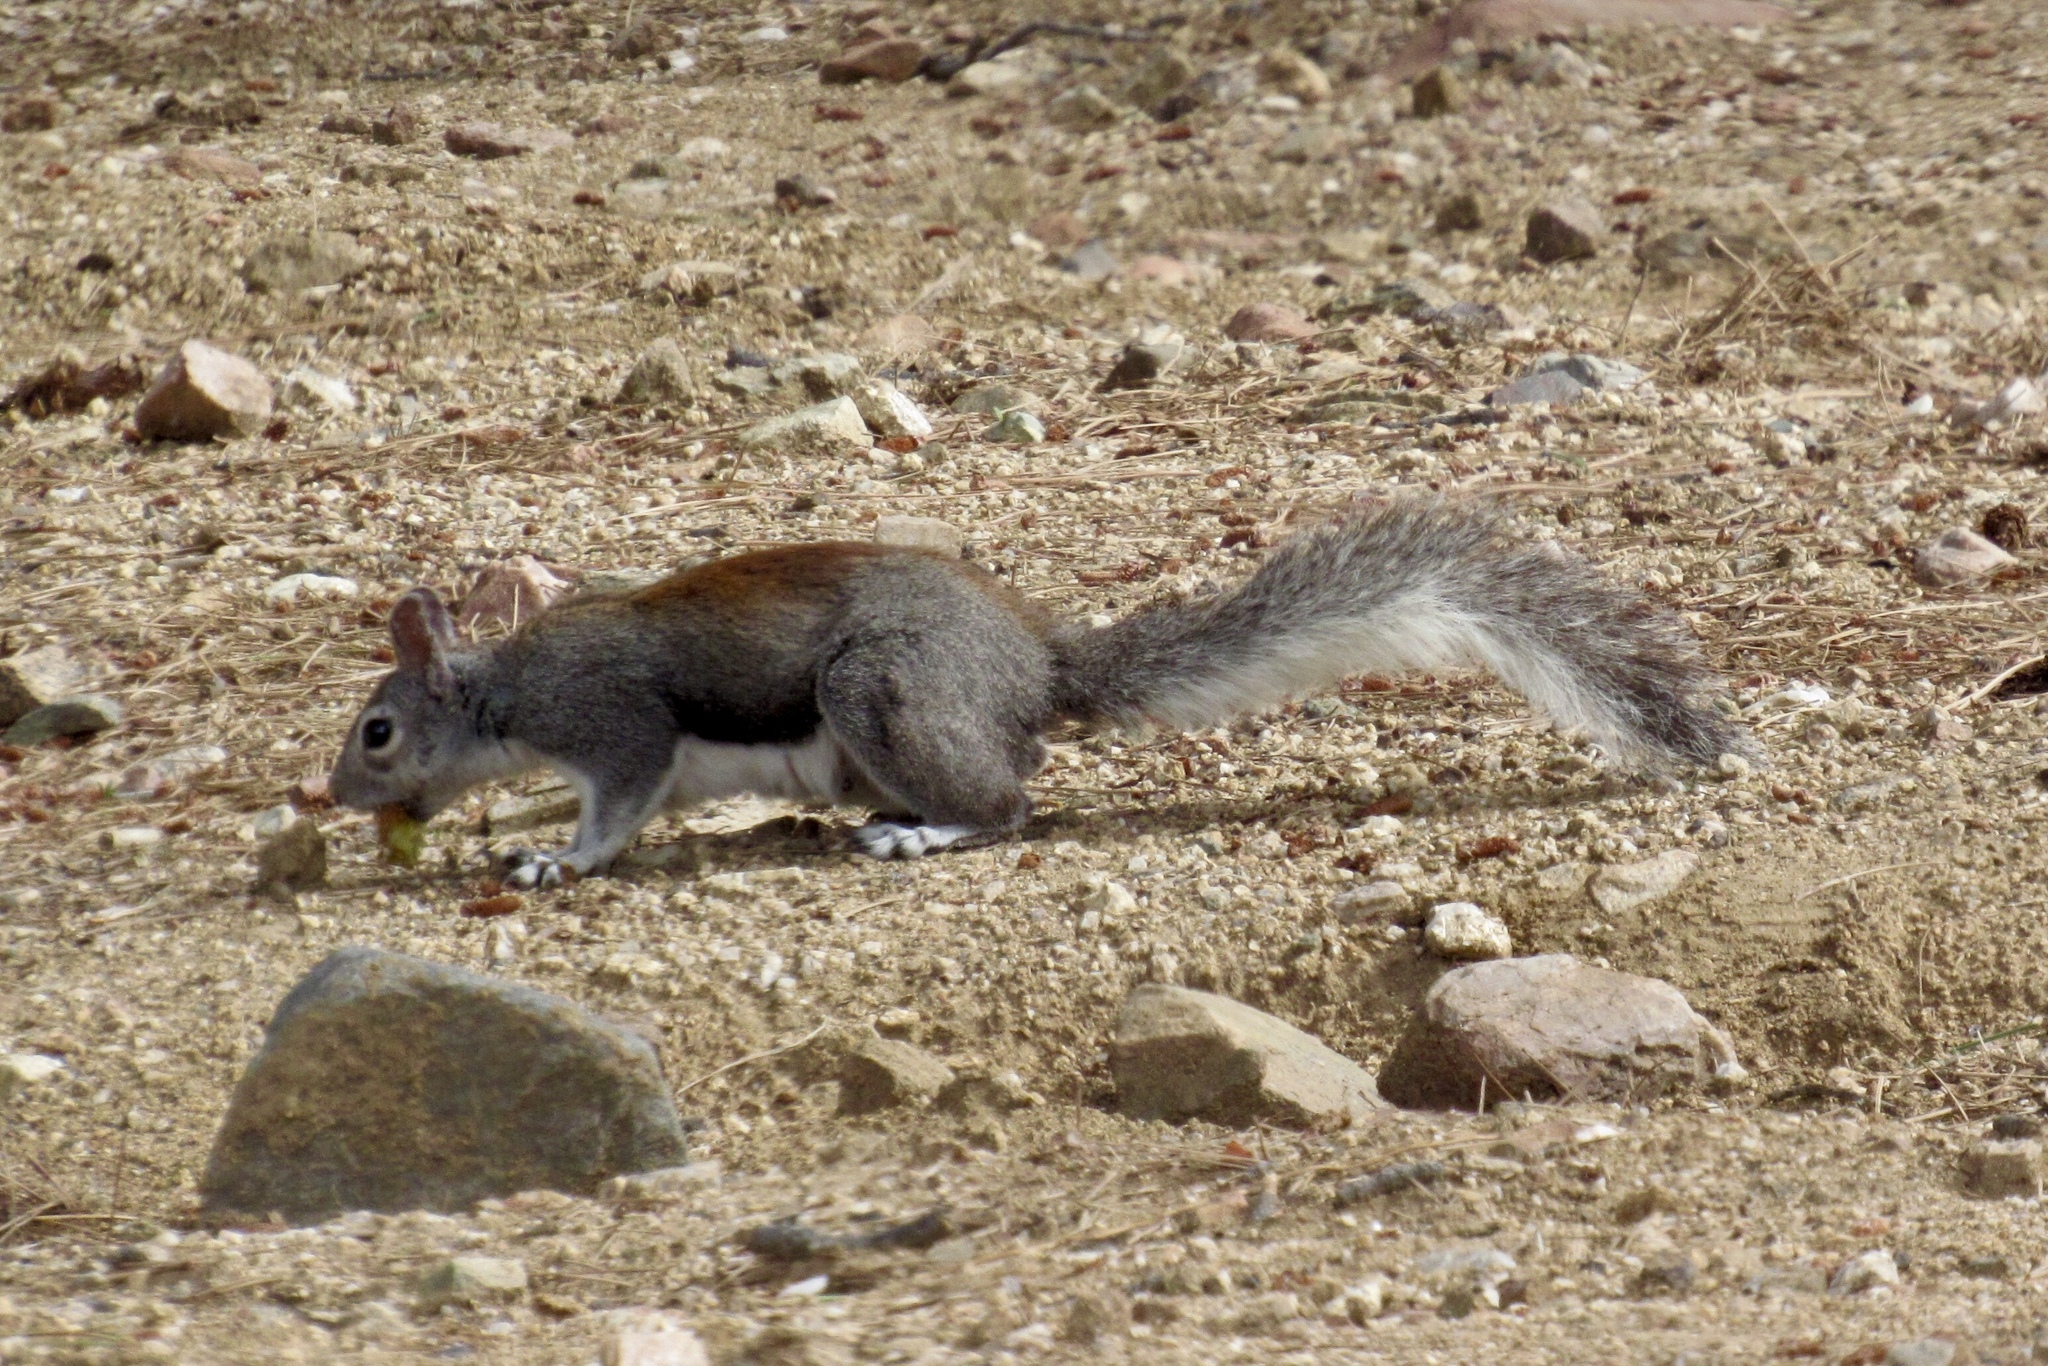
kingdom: Animalia
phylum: Chordata
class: Mammalia
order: Rodentia
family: Sciuridae
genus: Sciurus
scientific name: Sciurus aberti
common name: Abert's squirrel
